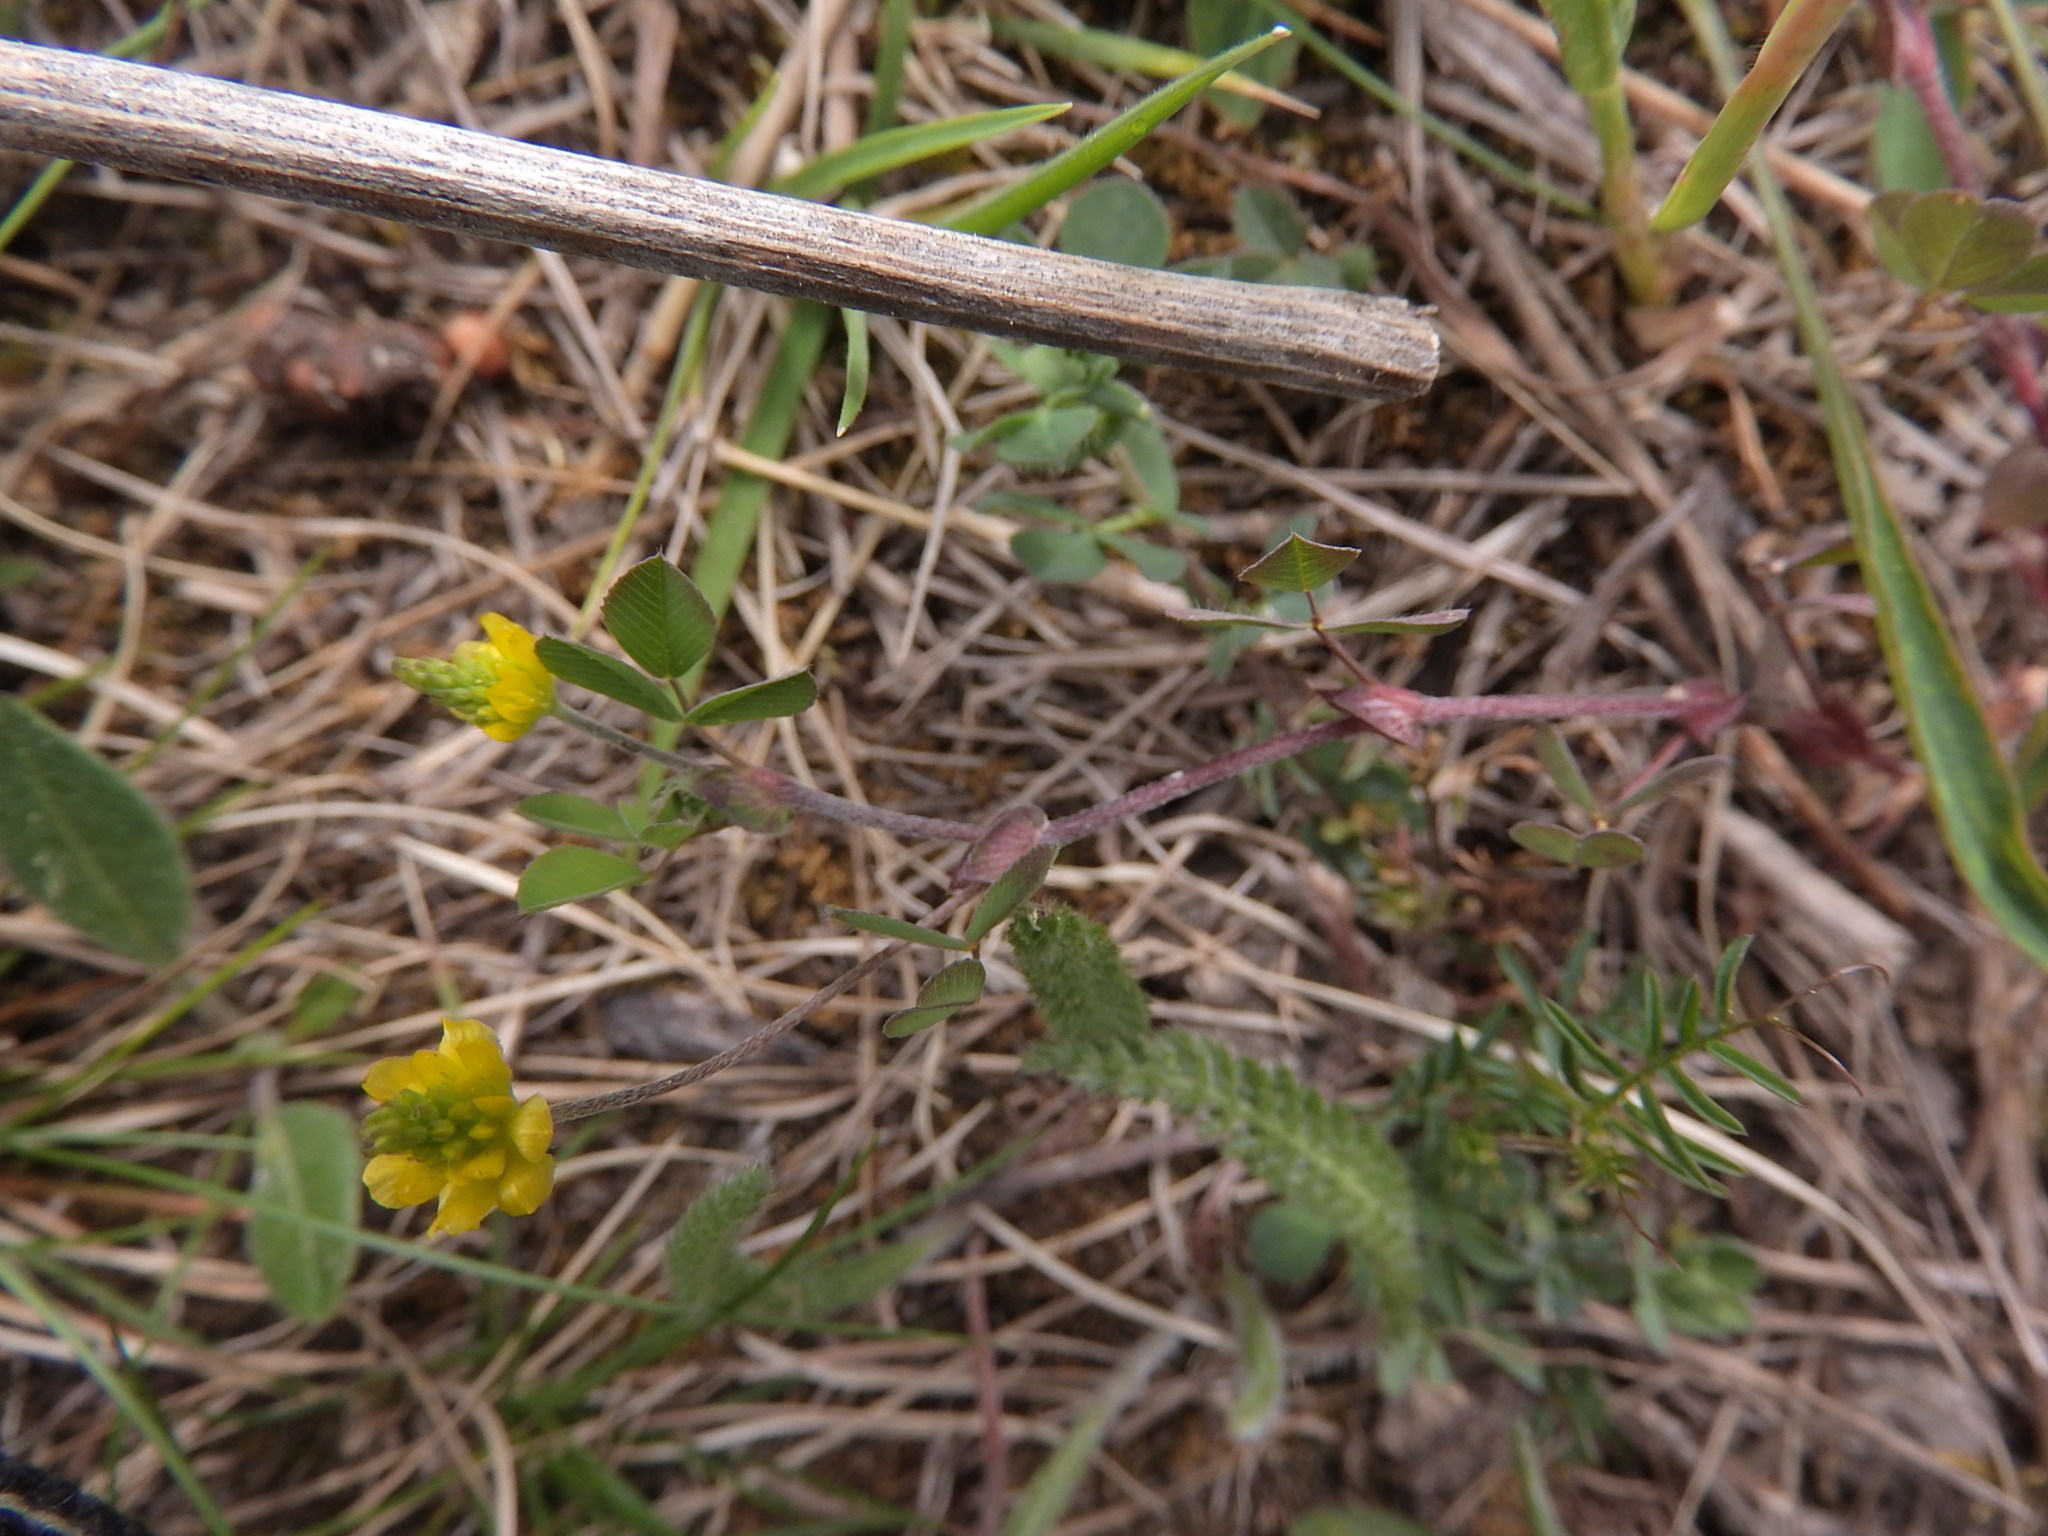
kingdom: Plantae
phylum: Tracheophyta
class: Magnoliopsida
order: Fabales
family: Fabaceae
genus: Medicago
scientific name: Medicago lupulina
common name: Black medick
